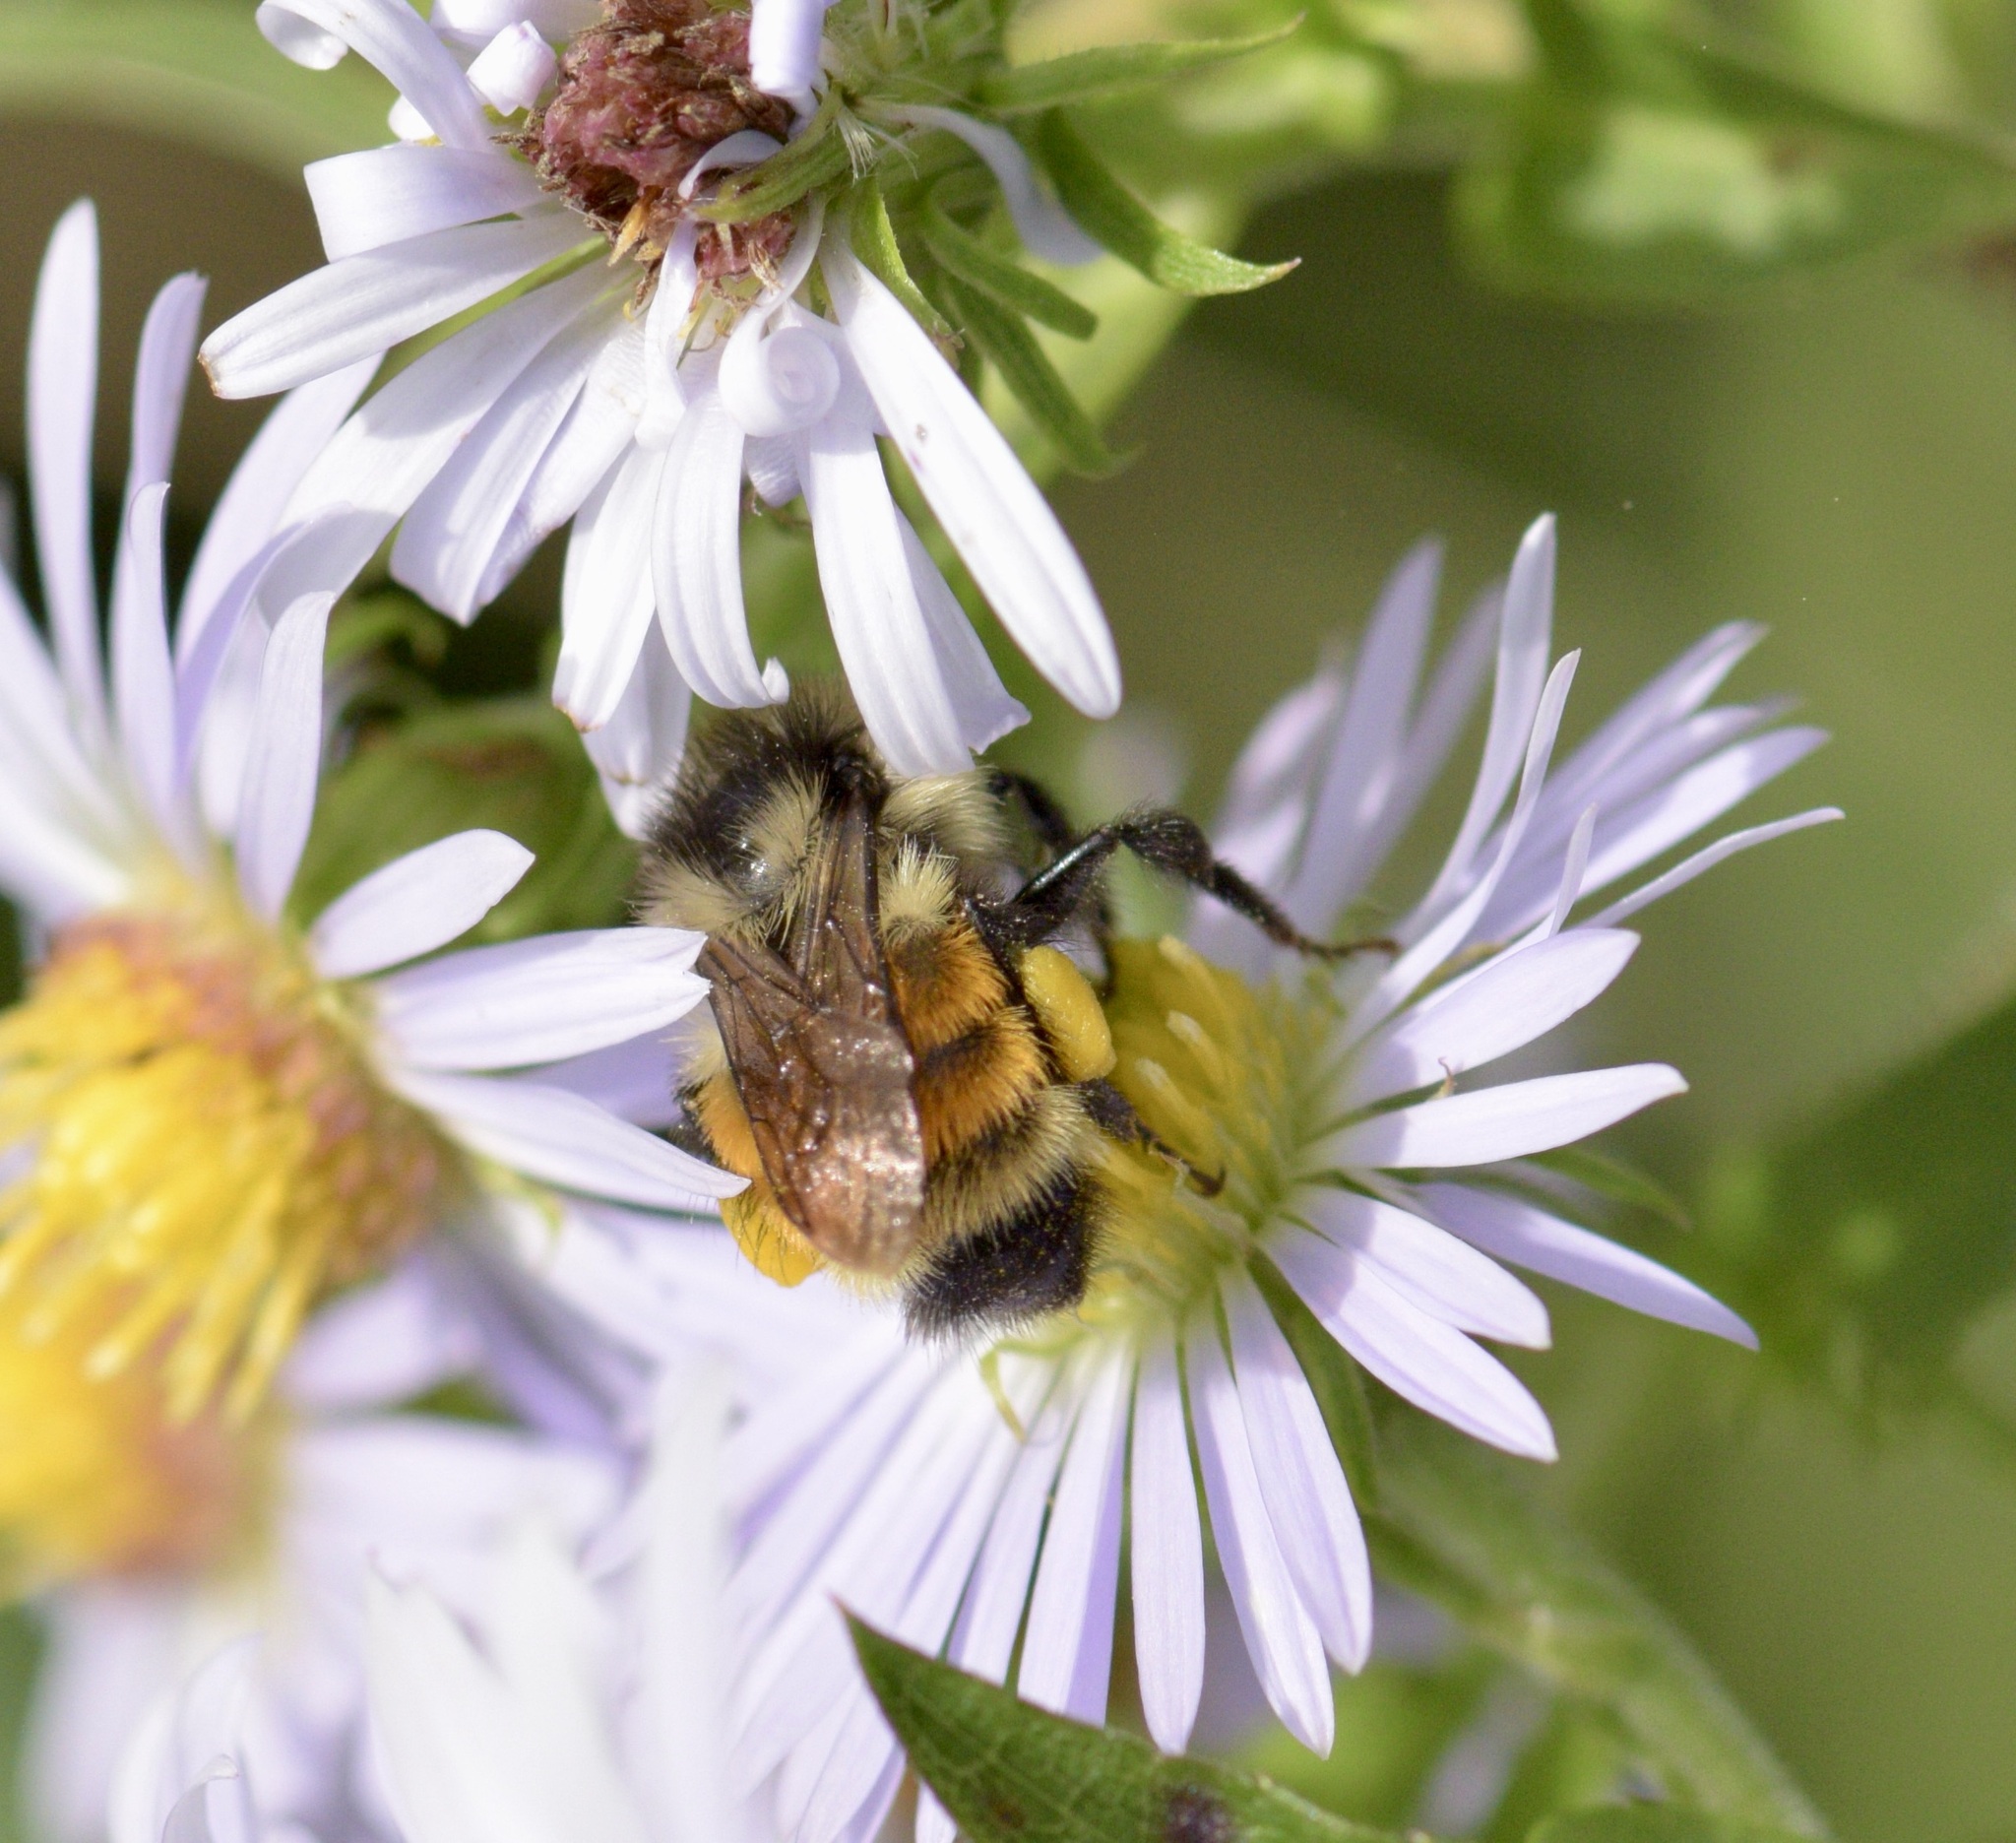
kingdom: Animalia
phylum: Arthropoda
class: Insecta
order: Hymenoptera
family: Apidae
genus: Bombus
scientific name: Bombus ternarius
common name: Tri-colored bumble bee
